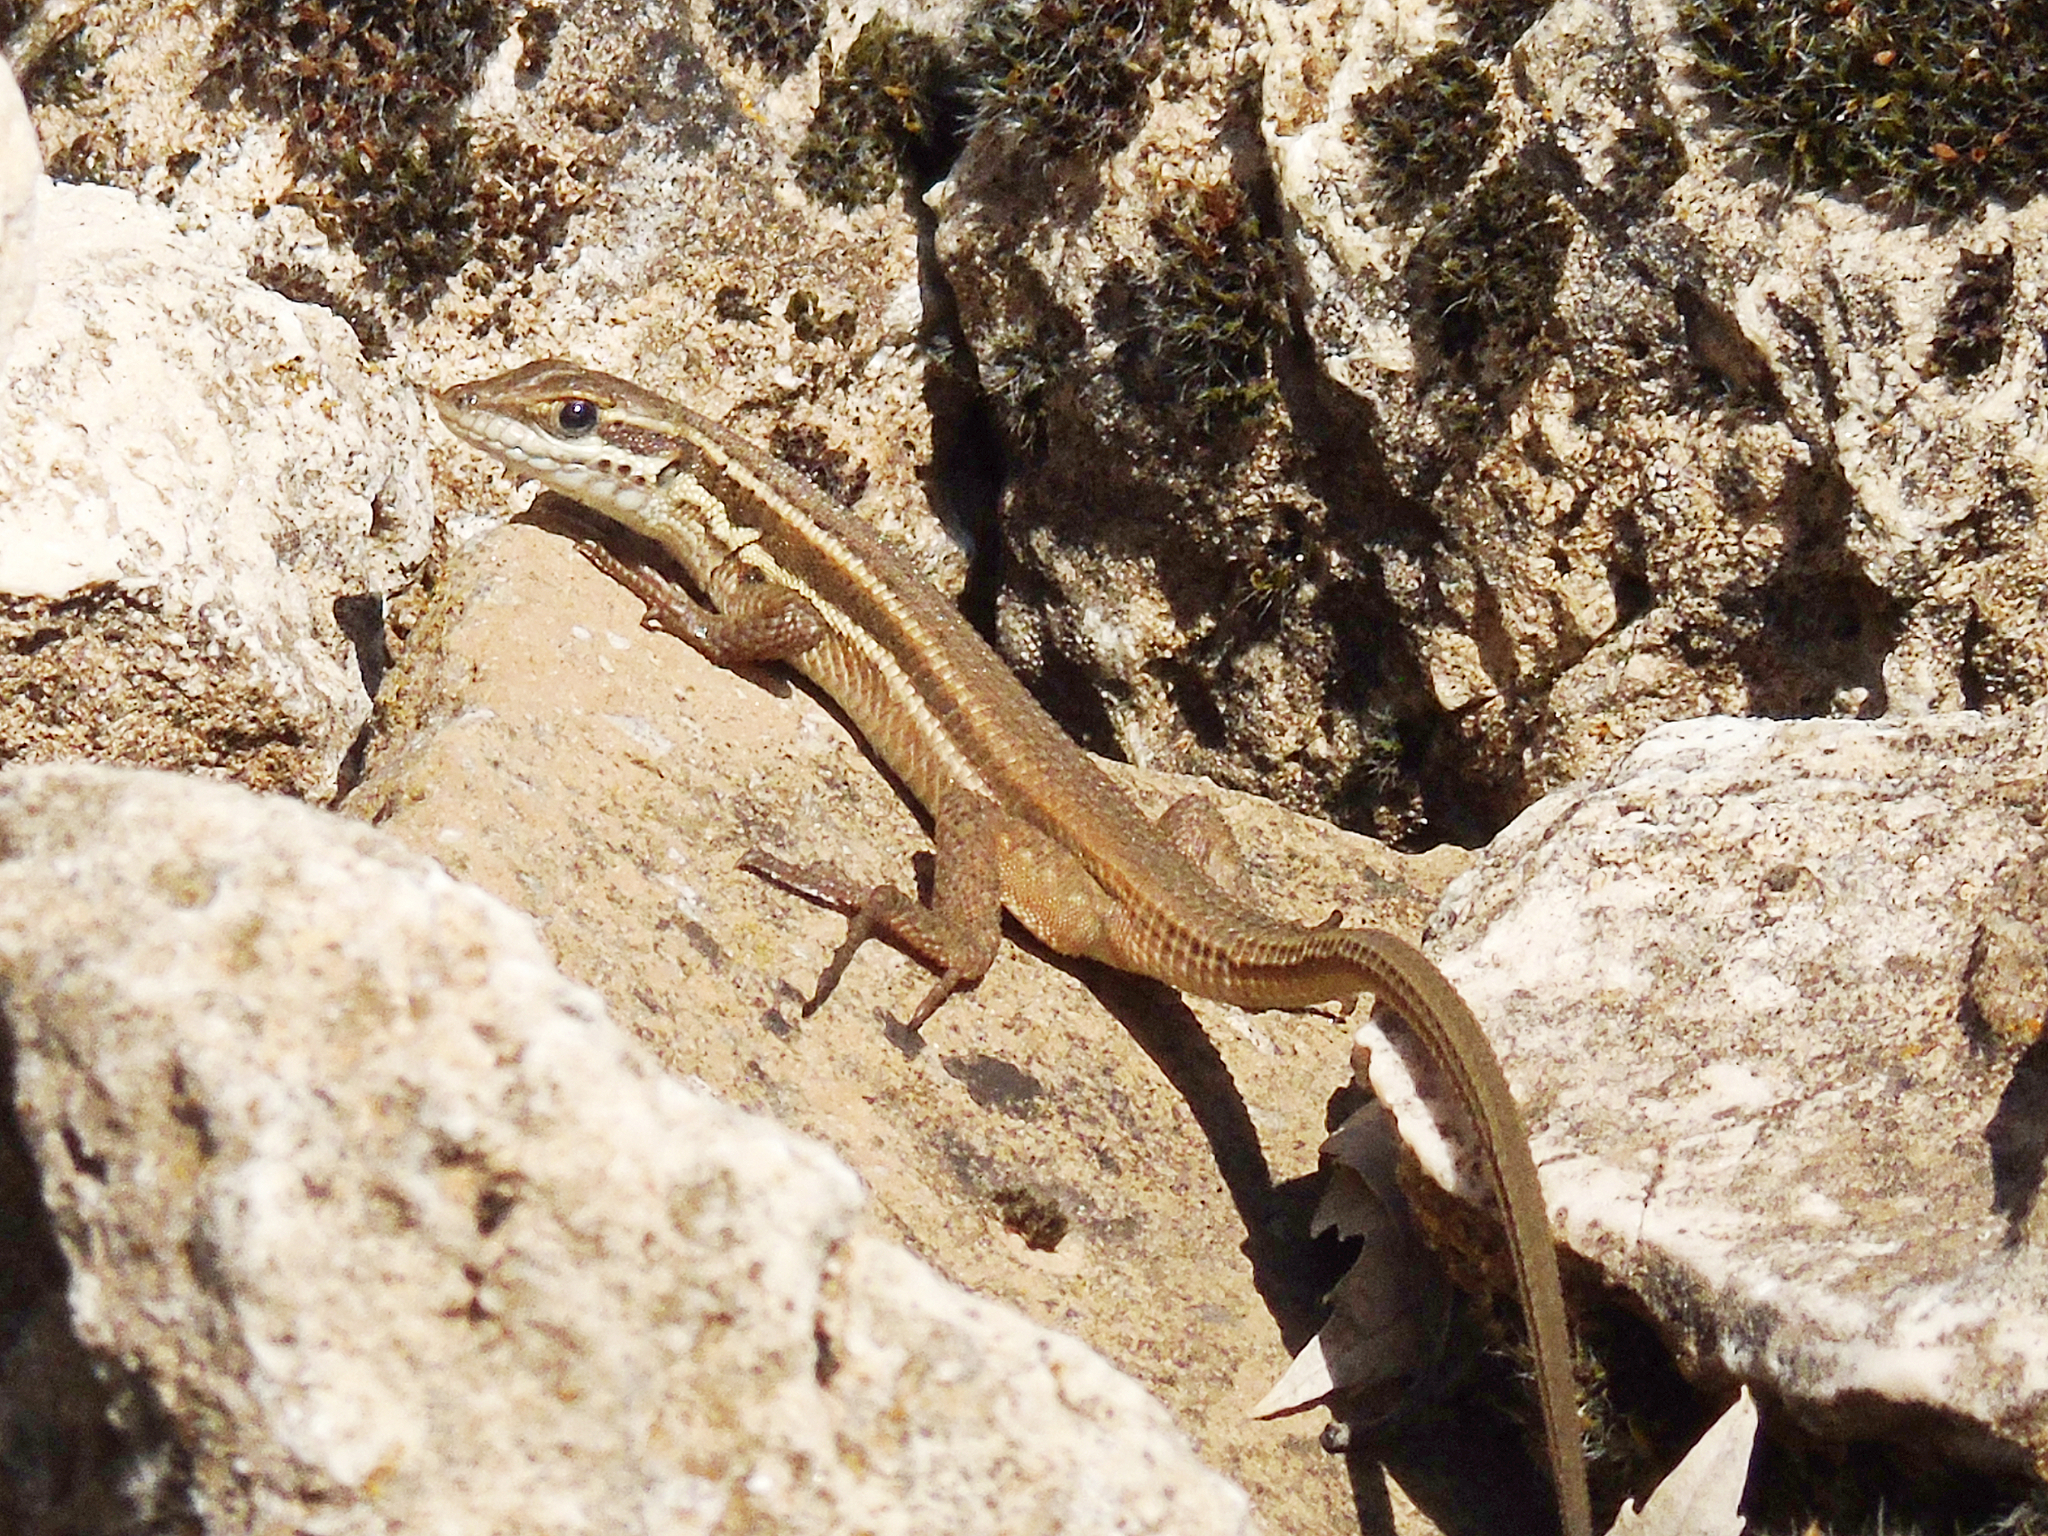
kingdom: Animalia
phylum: Chordata
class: Squamata
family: Lacertidae
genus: Ophisops
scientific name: Ophisops elegans
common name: Snake-eyed lizard
